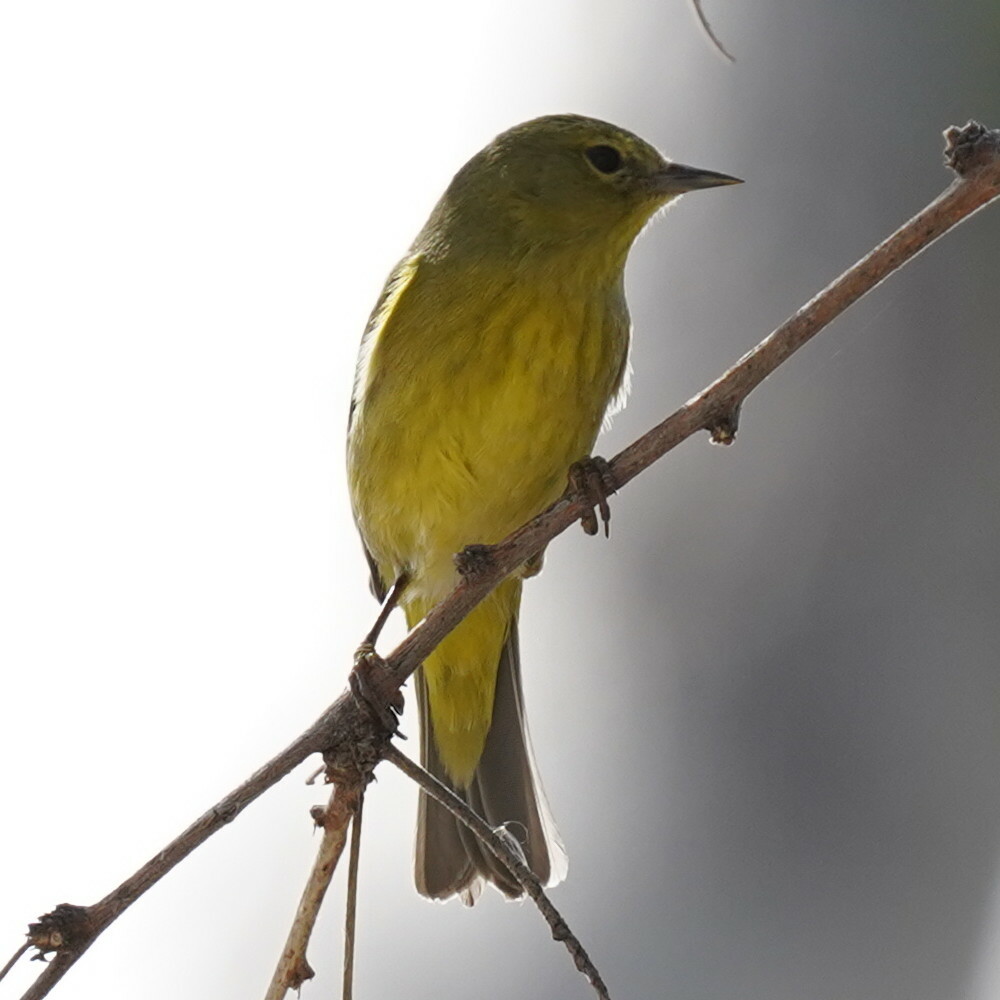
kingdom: Animalia
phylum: Chordata
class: Aves
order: Passeriformes
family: Parulidae
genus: Leiothlypis
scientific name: Leiothlypis celata
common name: Orange-crowned warbler
